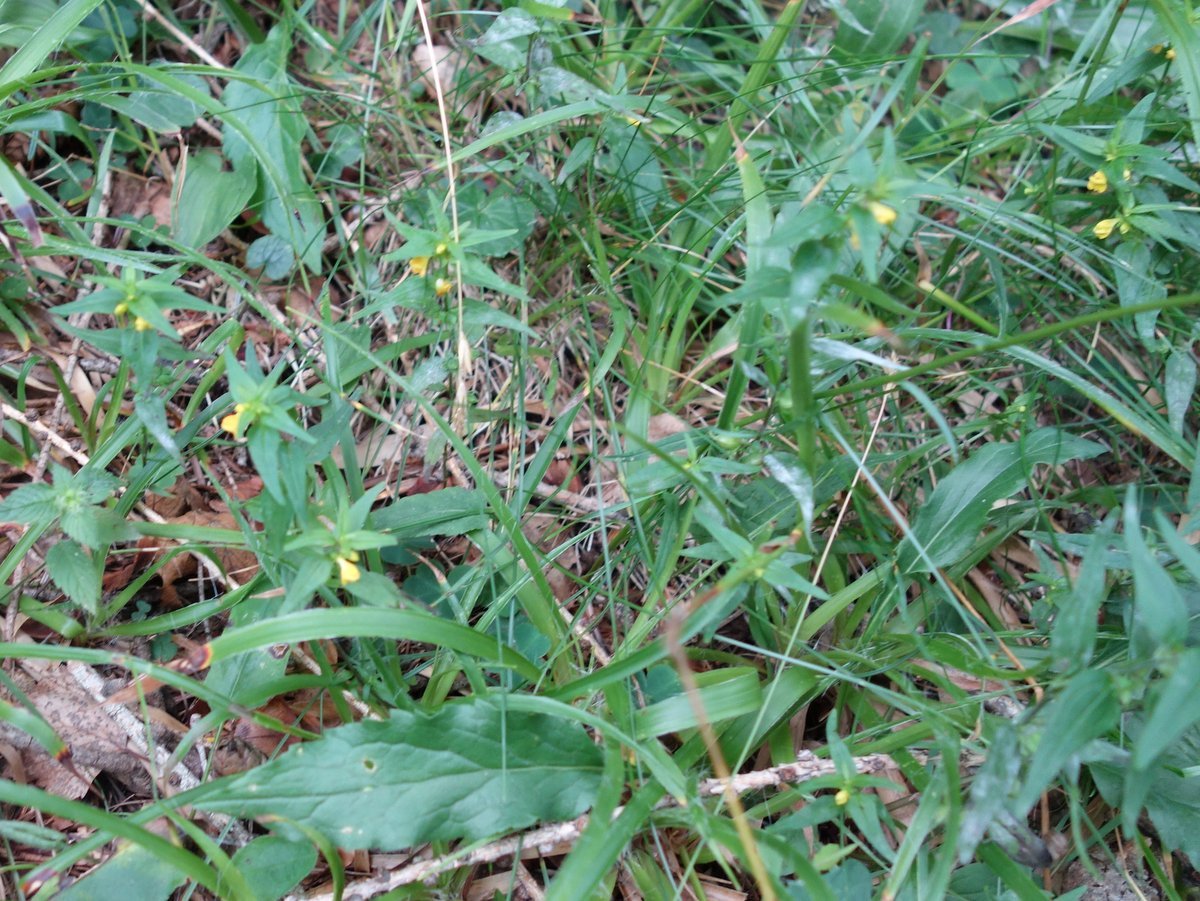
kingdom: Plantae
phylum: Tracheophyta
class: Magnoliopsida
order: Lamiales
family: Orobanchaceae
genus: Melampyrum
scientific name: Melampyrum sylvaticum
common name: Small cow-wheat
